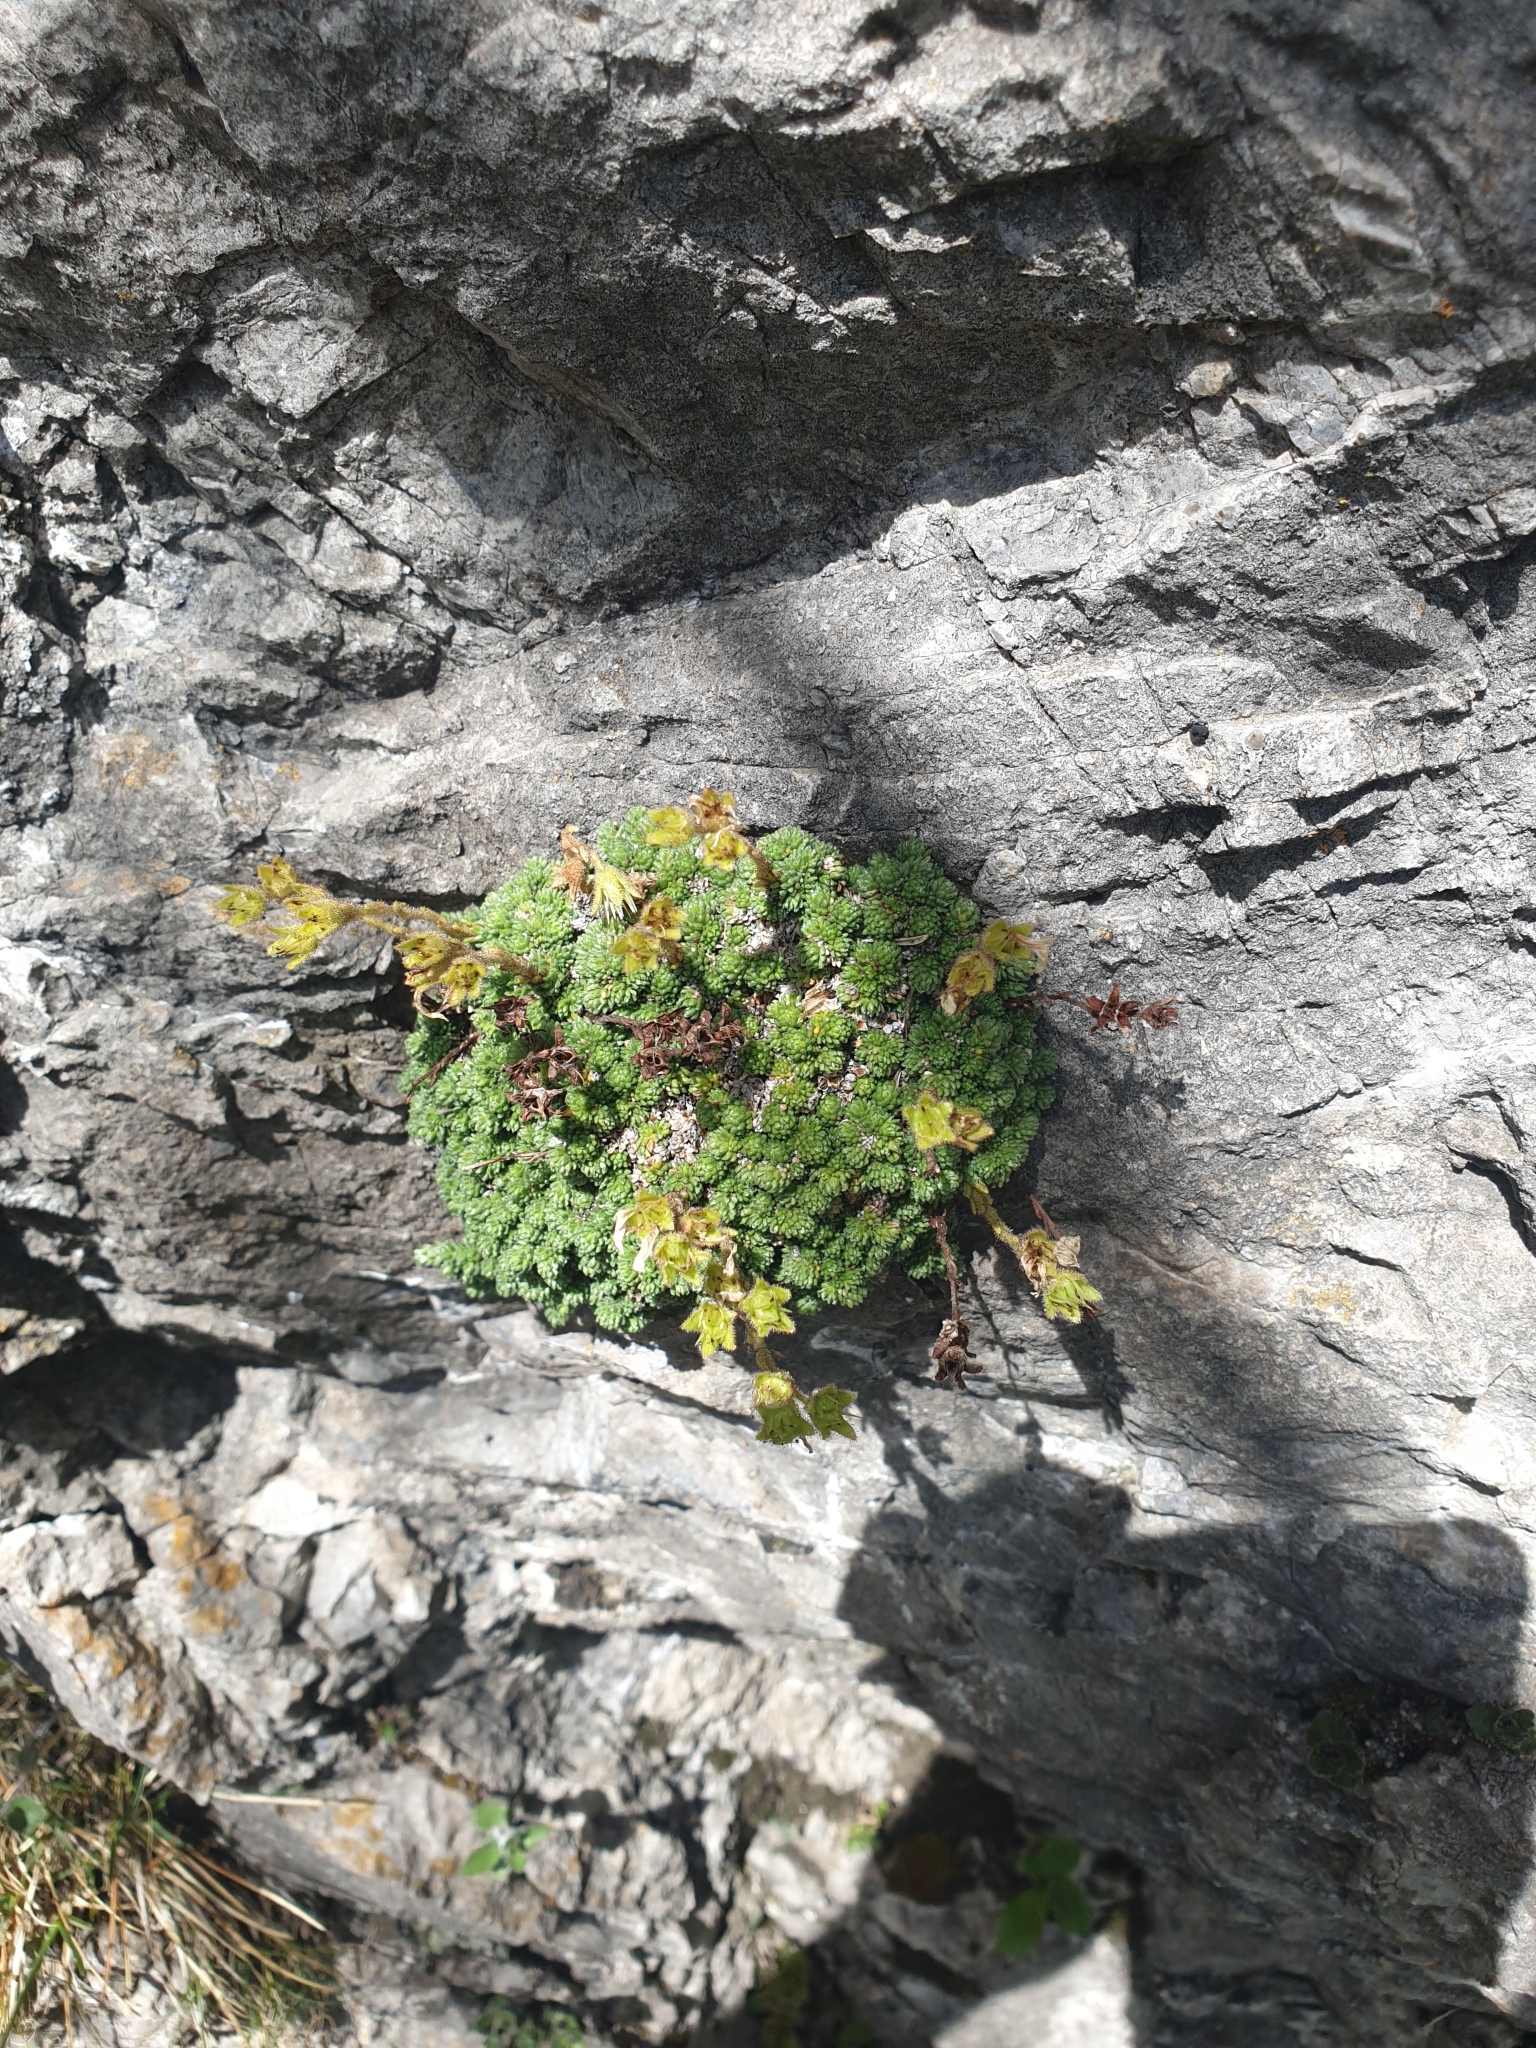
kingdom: Plantae
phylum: Tracheophyta
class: Magnoliopsida
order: Saxifragales
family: Saxifragaceae
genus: Saxifraga
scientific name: Saxifraga tombeanensis
